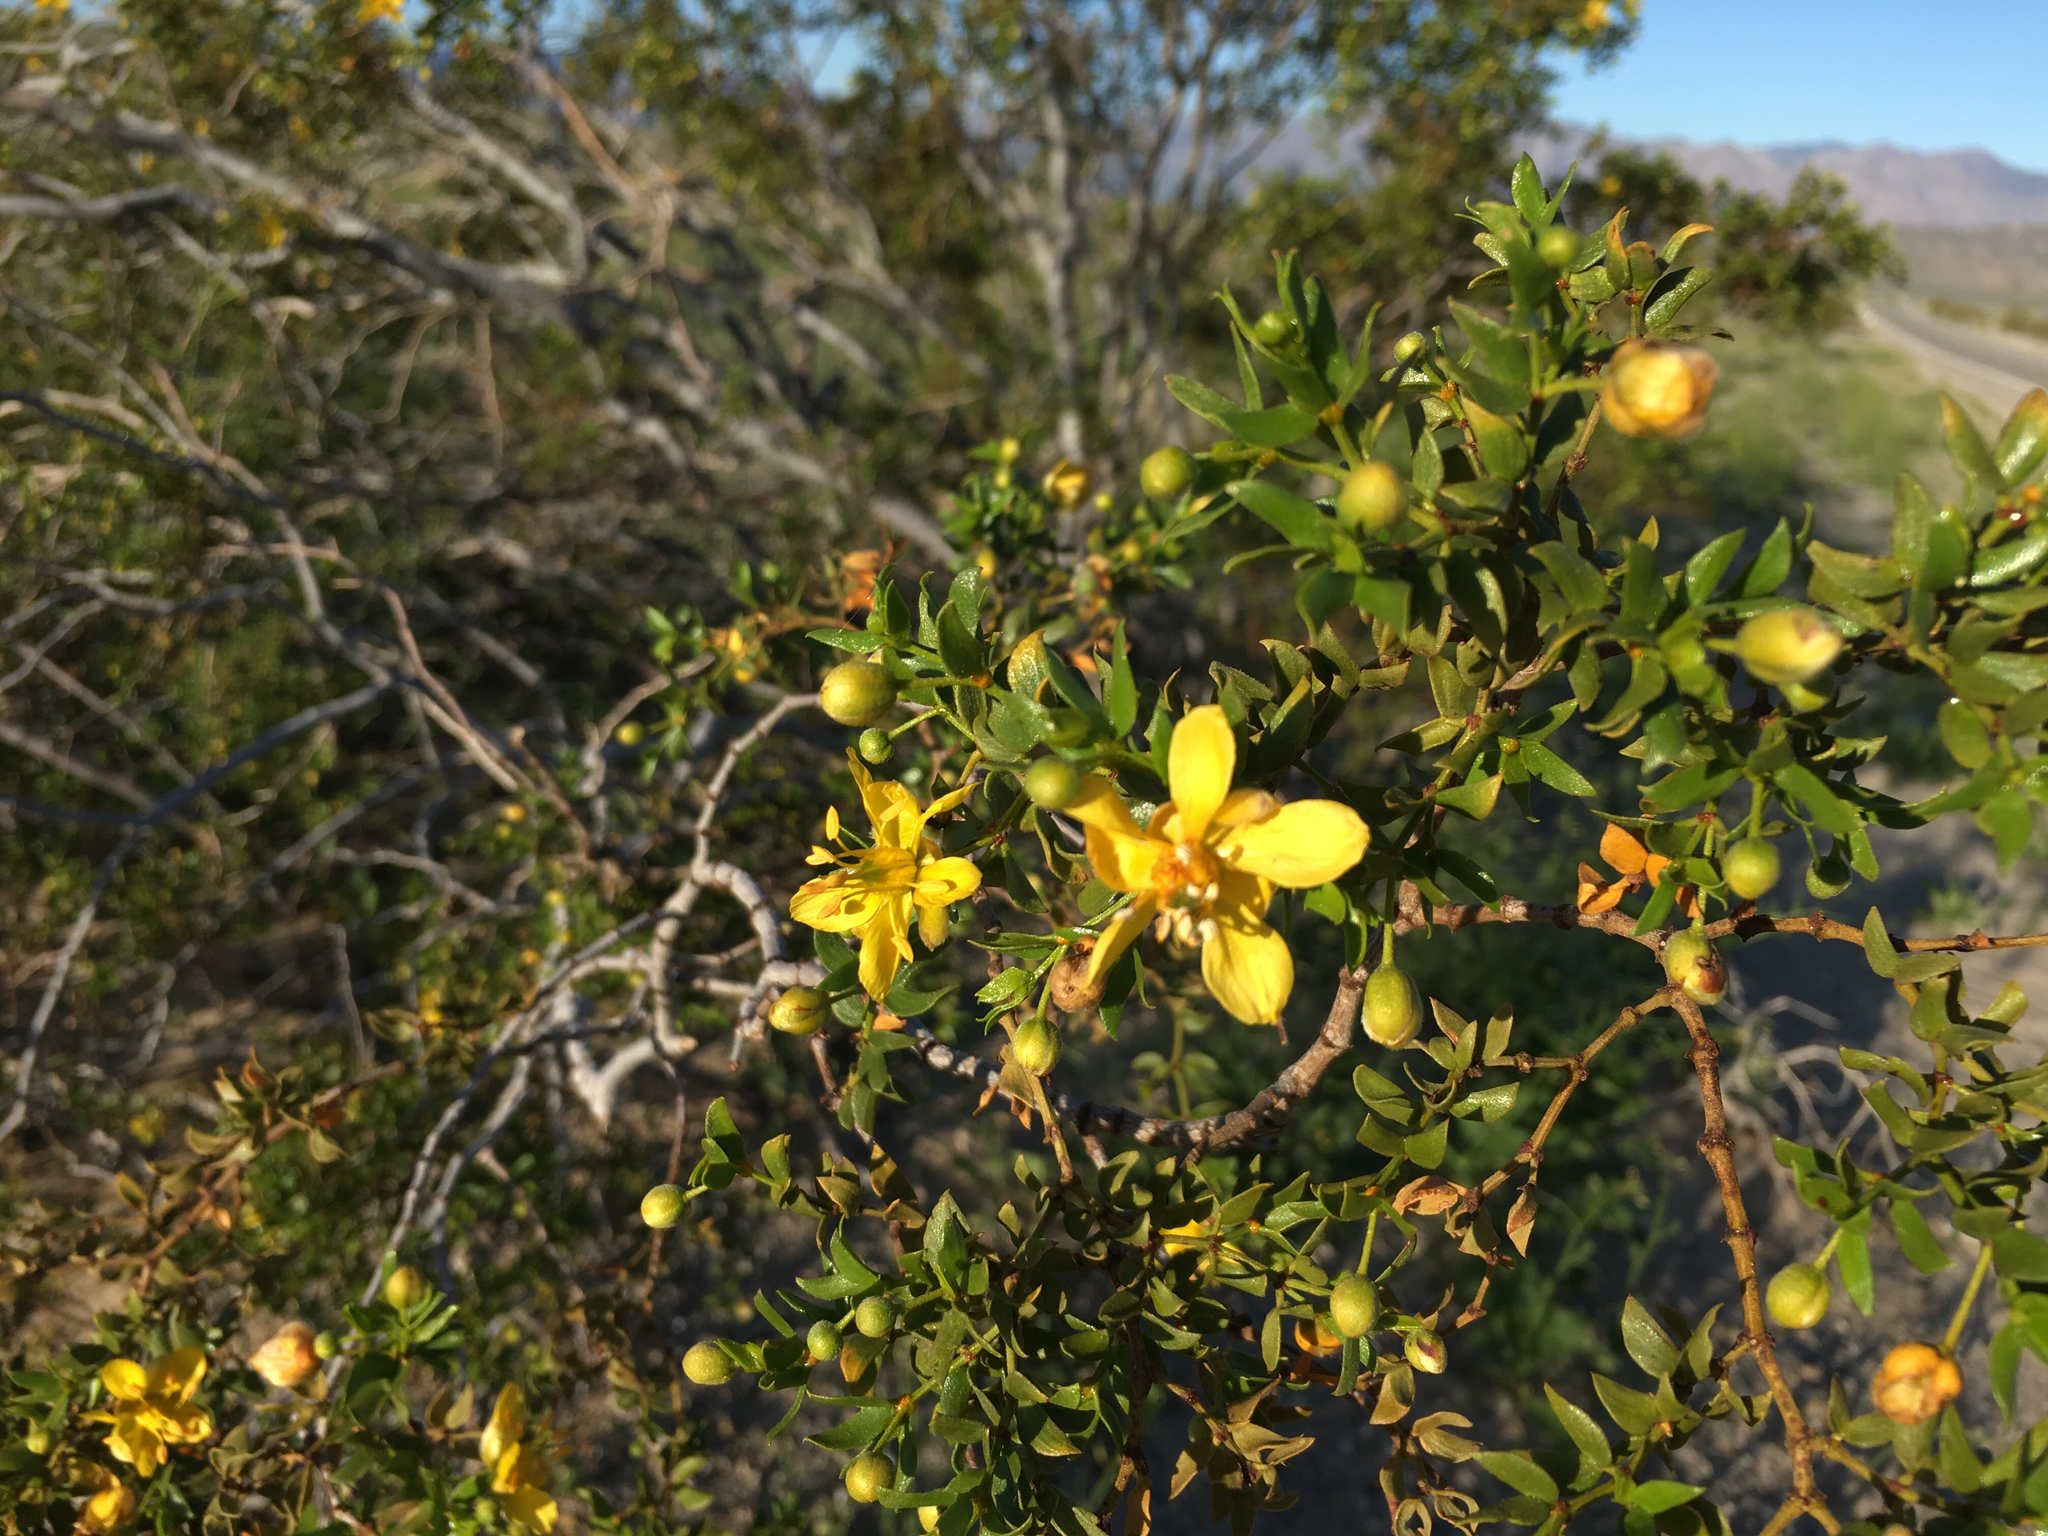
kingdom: Plantae
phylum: Tracheophyta
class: Magnoliopsida
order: Zygophyllales
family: Zygophyllaceae
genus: Larrea
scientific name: Larrea tridentata
